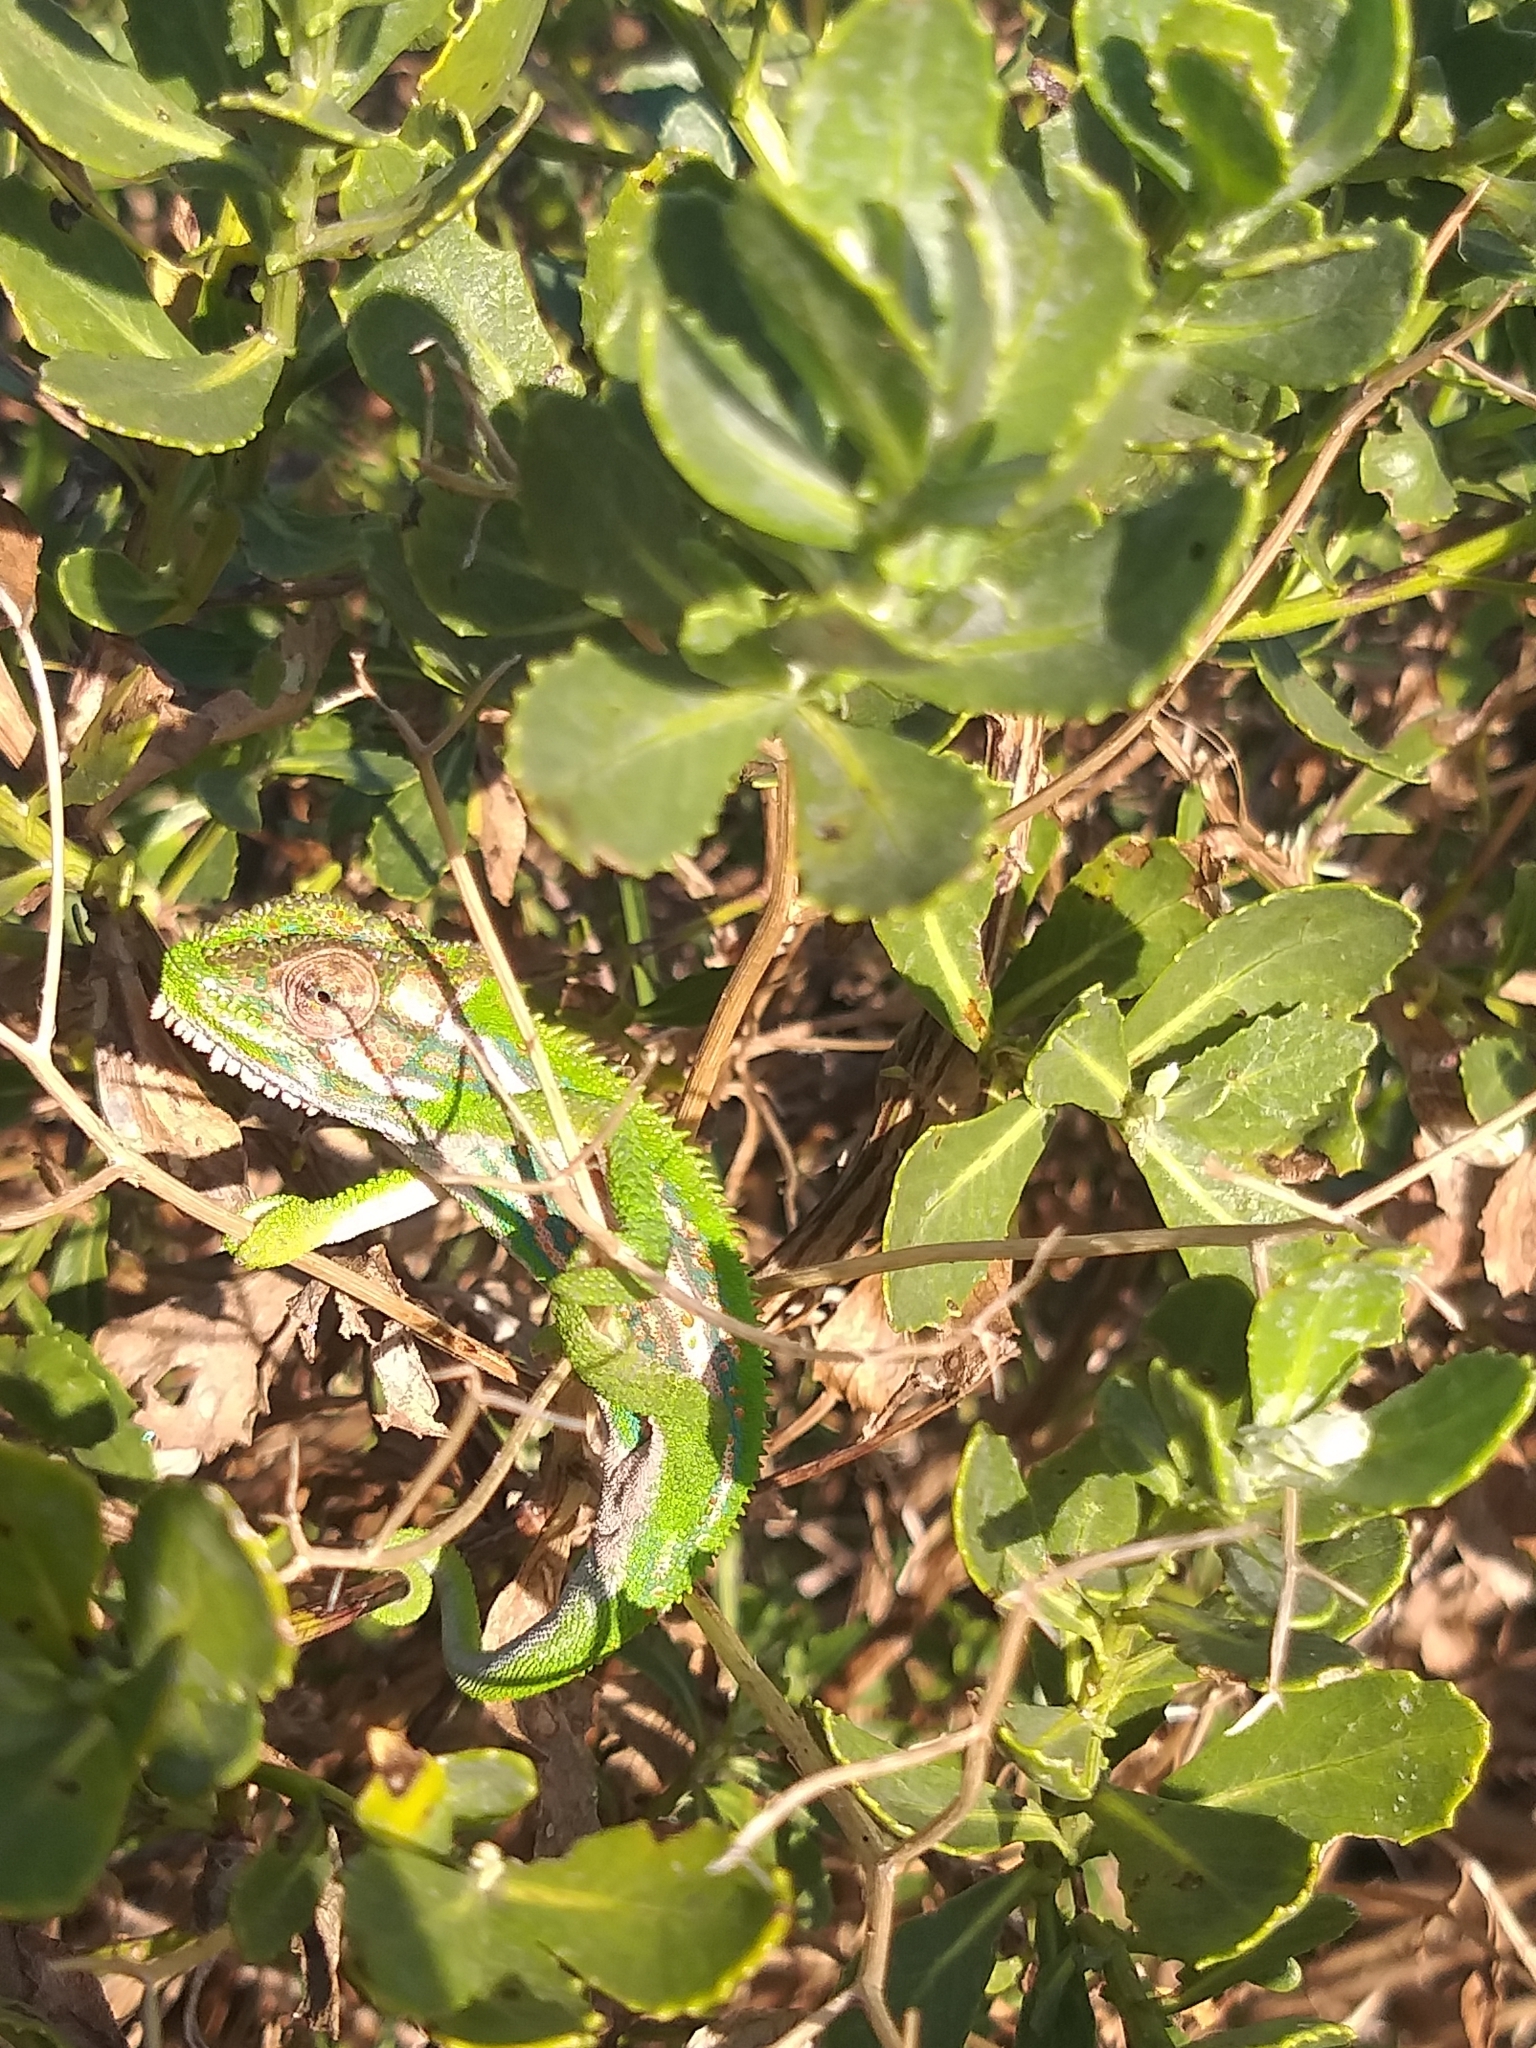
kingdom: Animalia
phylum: Chordata
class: Squamata
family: Chamaeleonidae
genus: Bradypodion
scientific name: Bradypodion pumilum
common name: Cape dwarf chameleon
